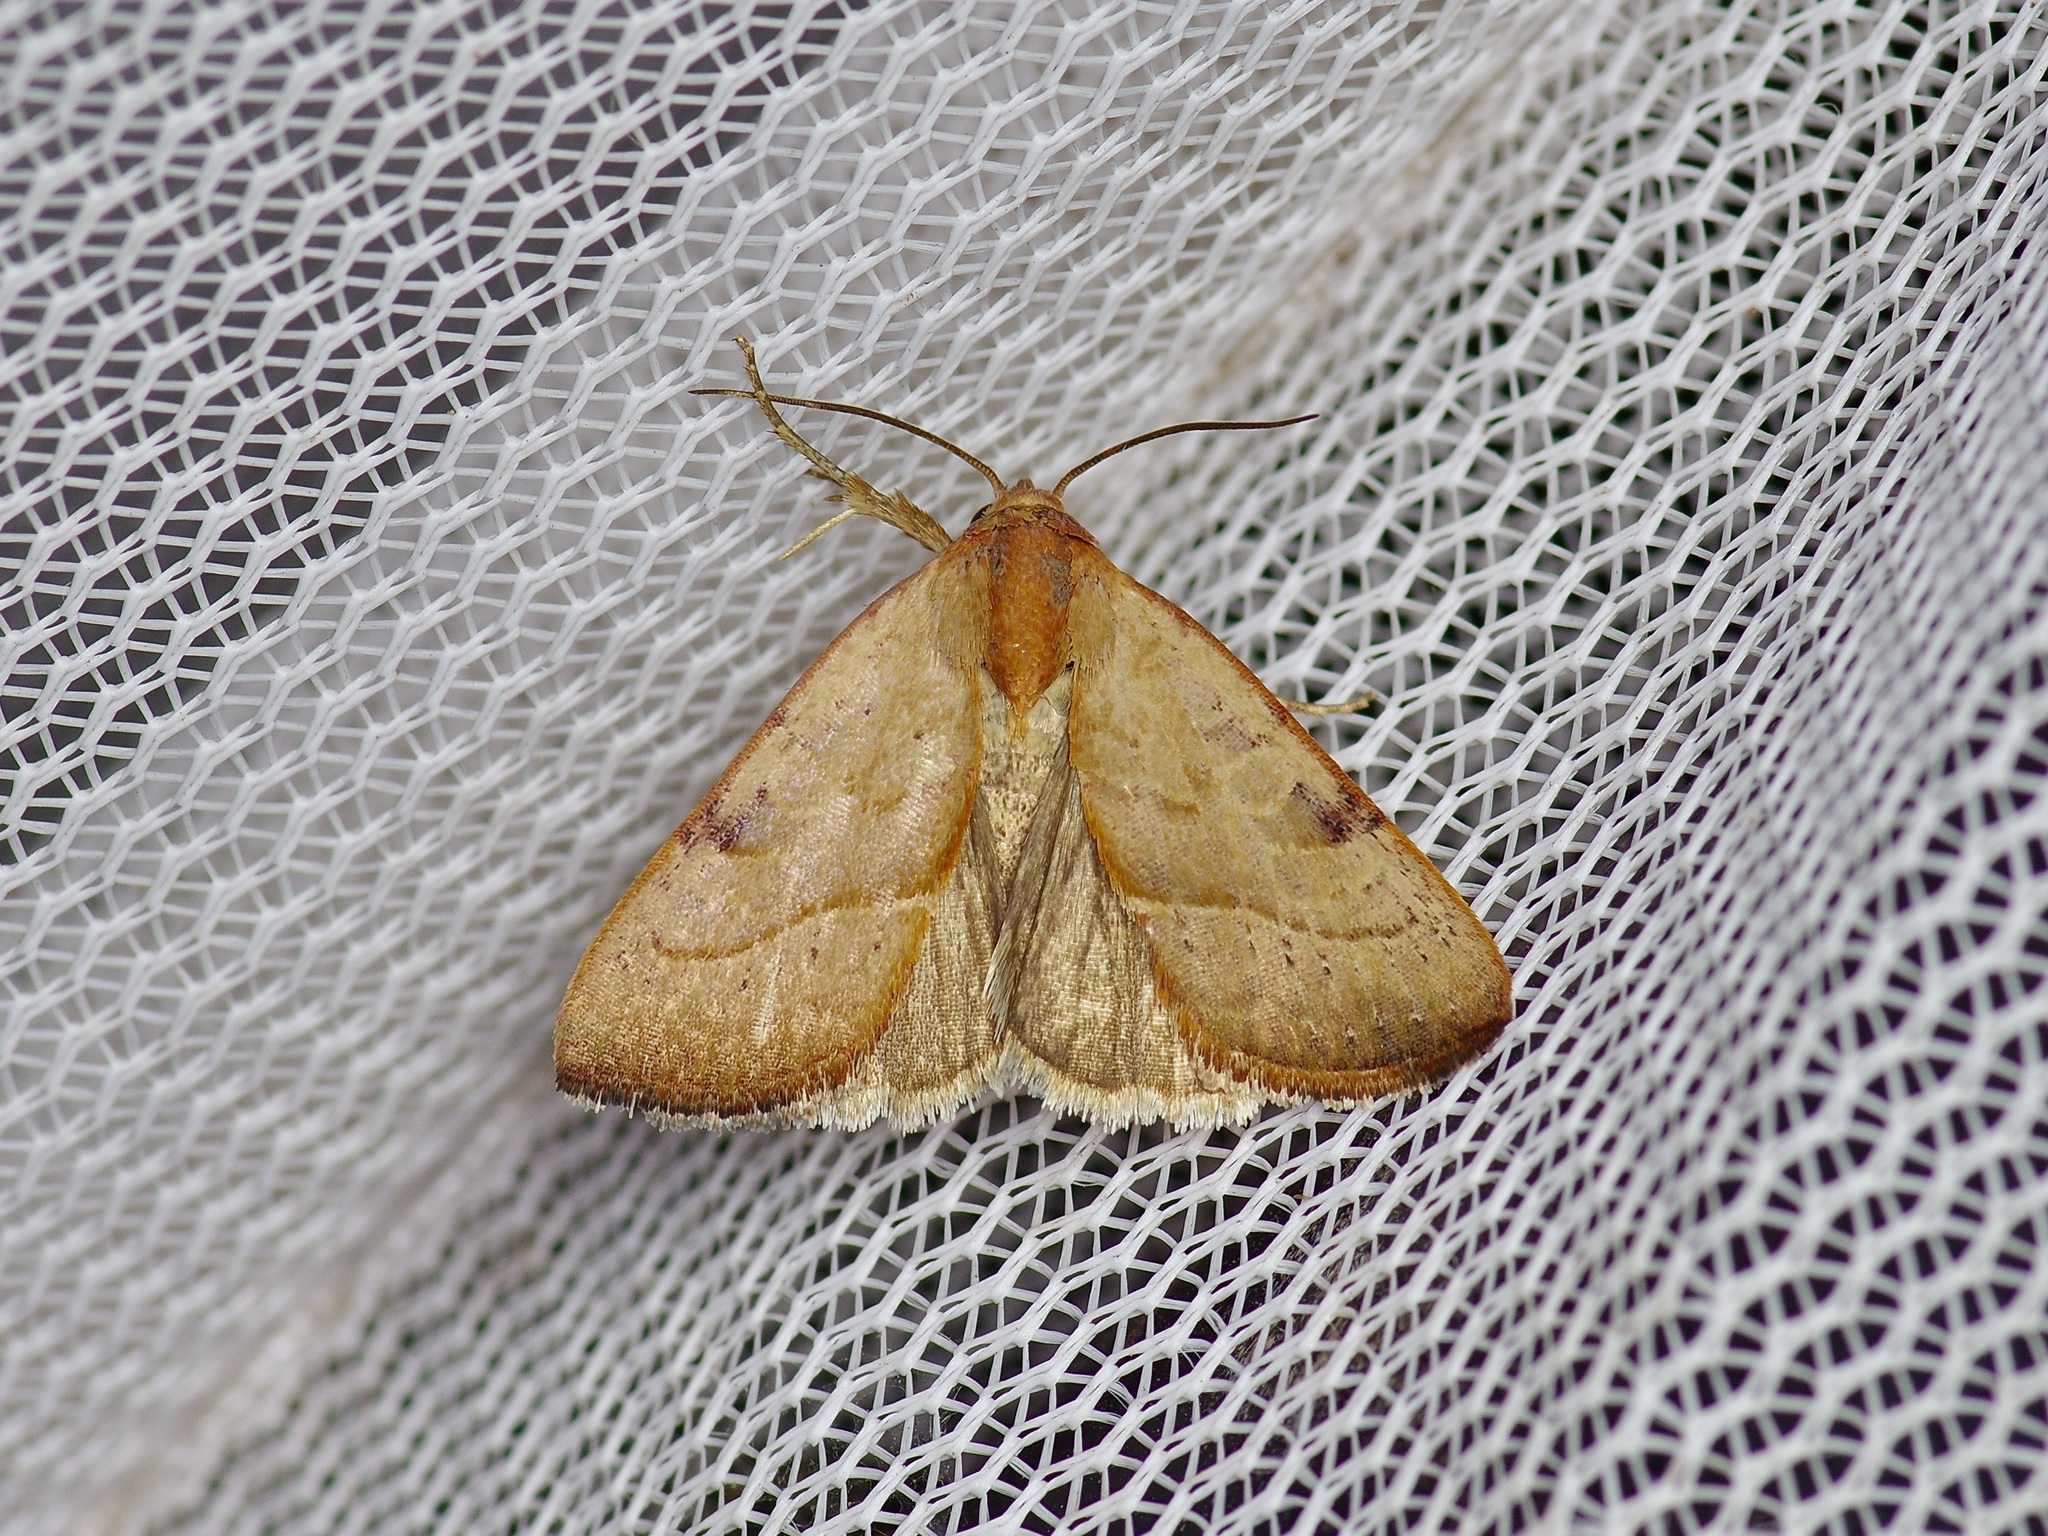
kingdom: Animalia
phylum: Arthropoda
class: Insecta
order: Lepidoptera
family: Noctuidae
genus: Galgula
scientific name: Galgula partita
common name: Wedgeling
